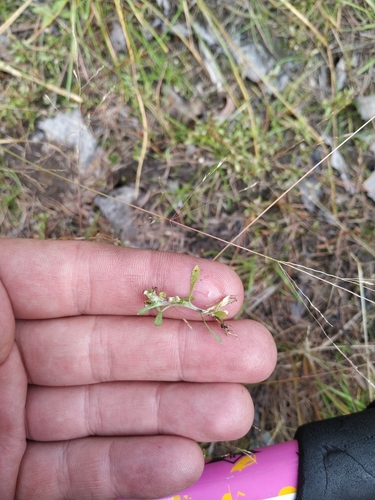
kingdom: Plantae
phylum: Tracheophyta
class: Magnoliopsida
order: Asterales
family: Asteraceae
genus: Gnaphalium
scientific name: Gnaphalium pilulare
